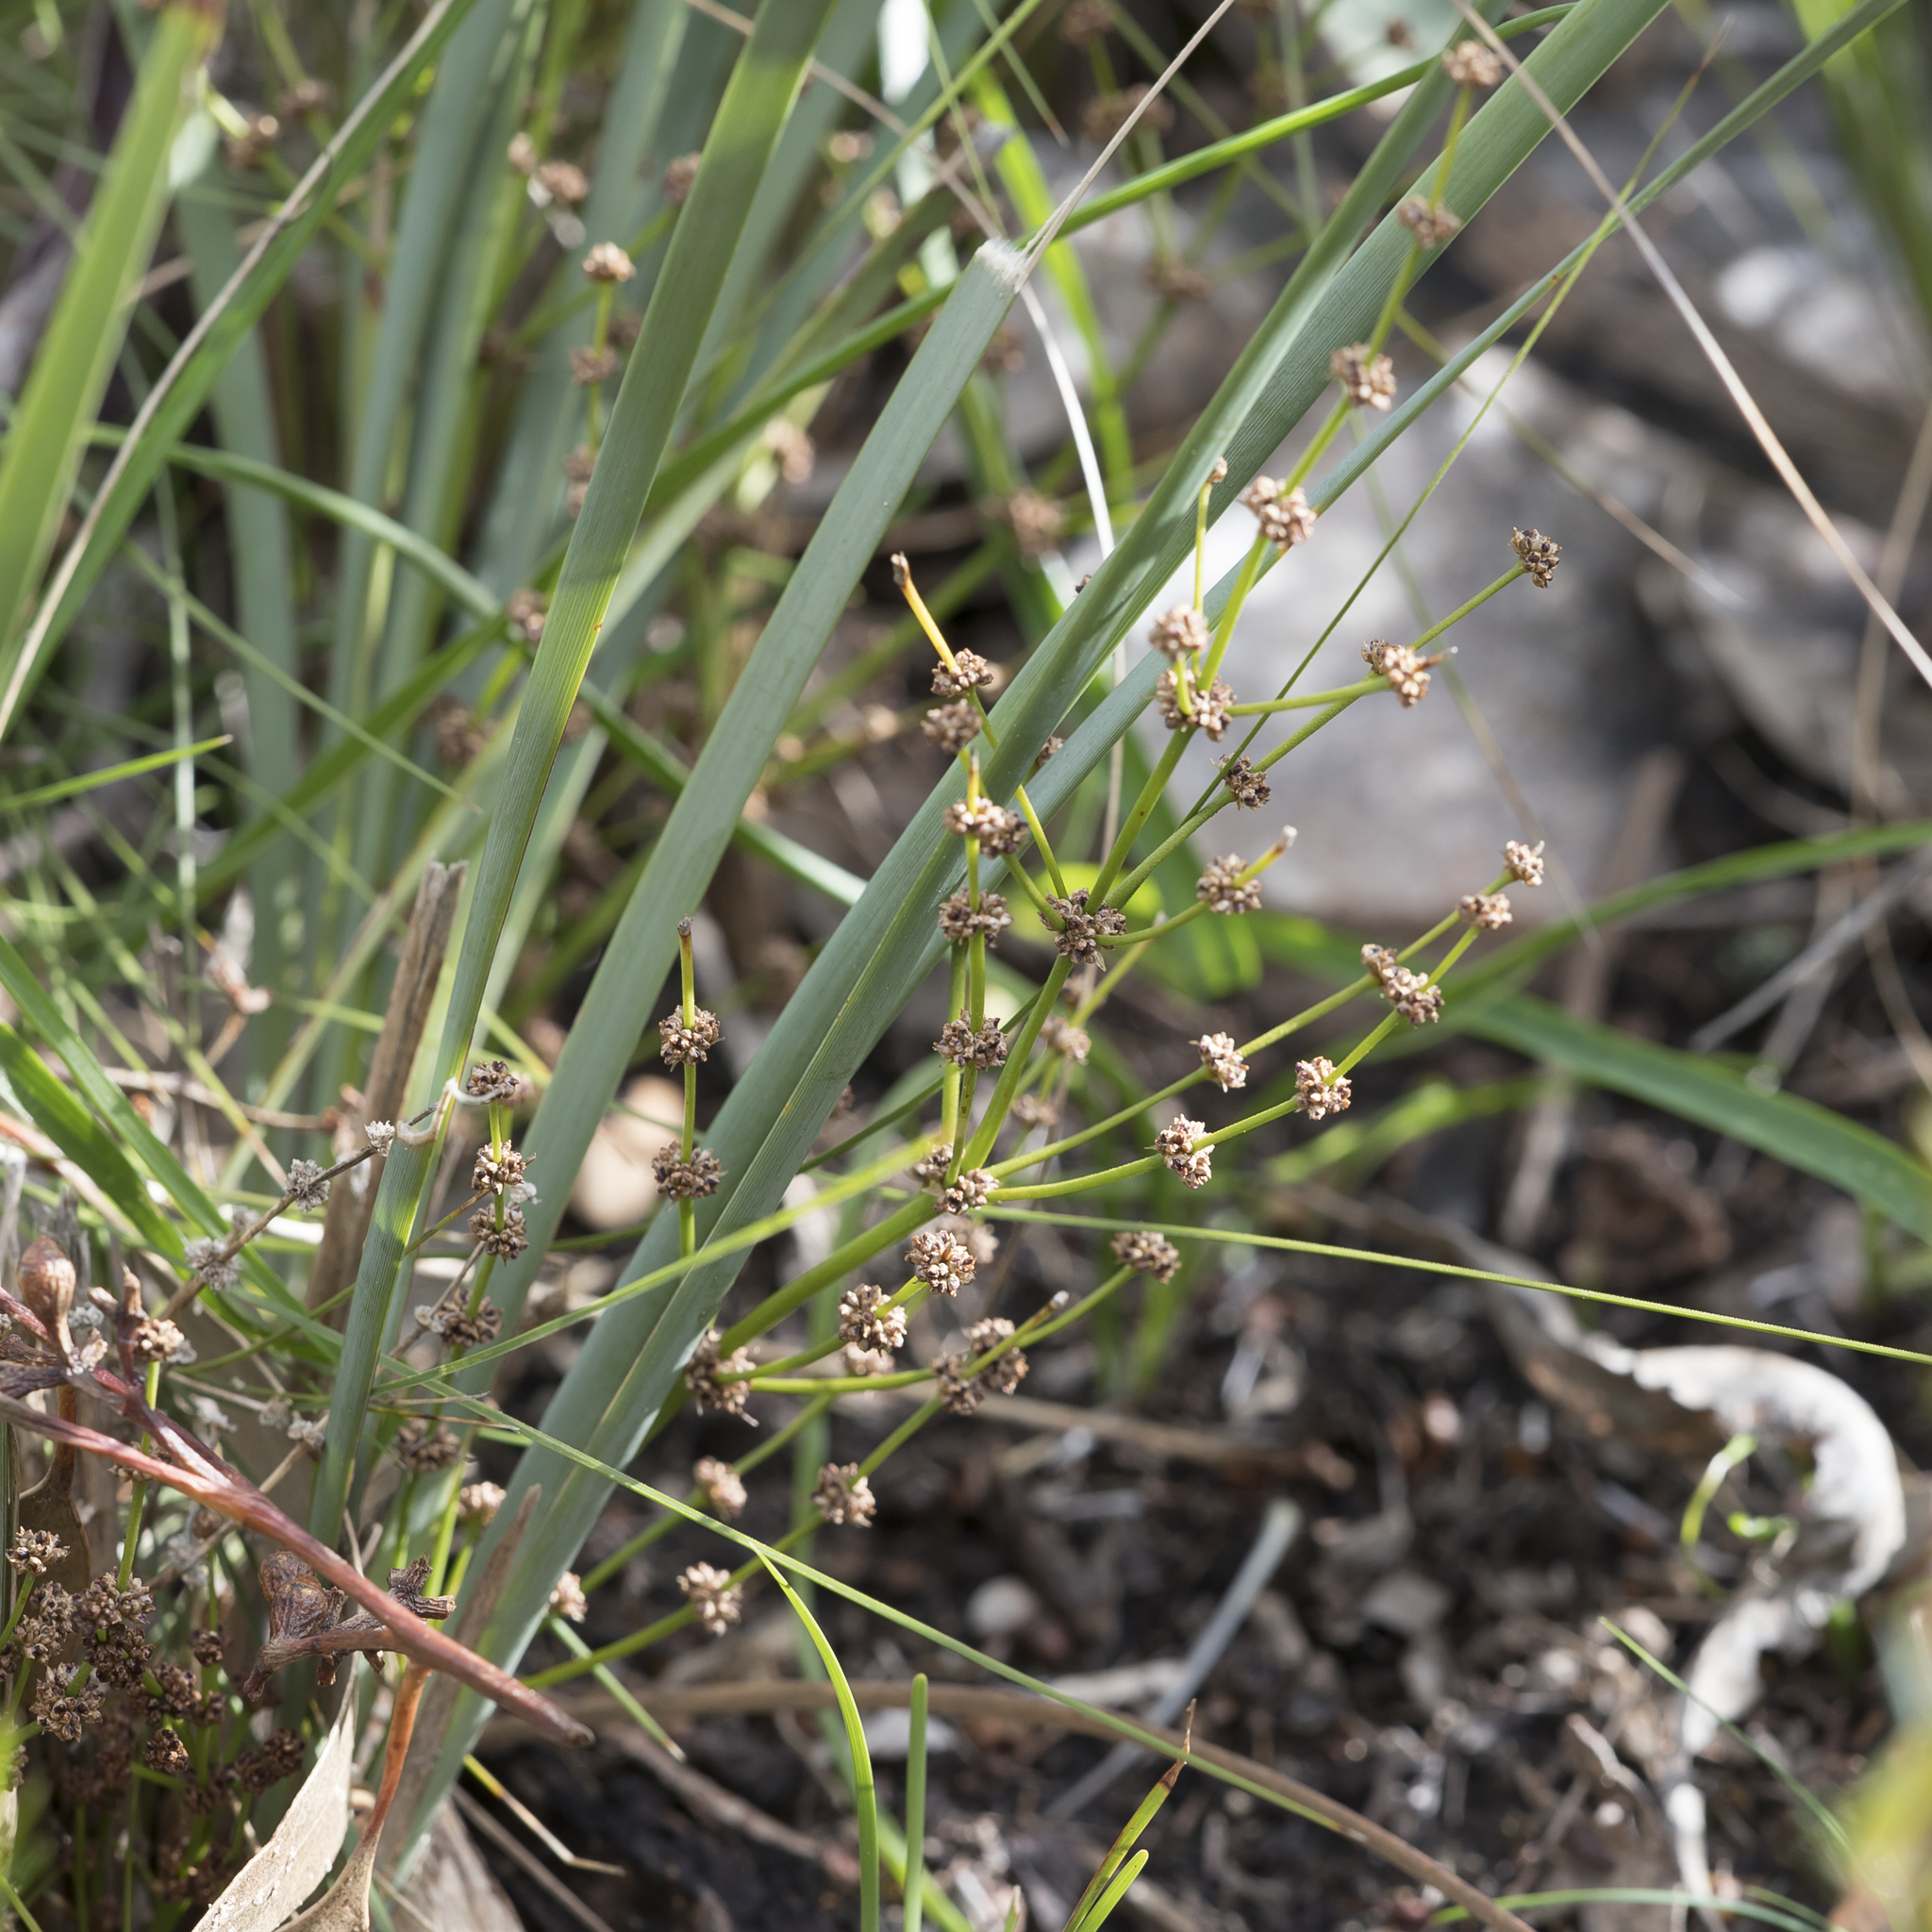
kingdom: Plantae
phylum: Tracheophyta
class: Liliopsida
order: Asparagales
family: Asparagaceae
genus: Lomandra
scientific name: Lomandra multiflora
